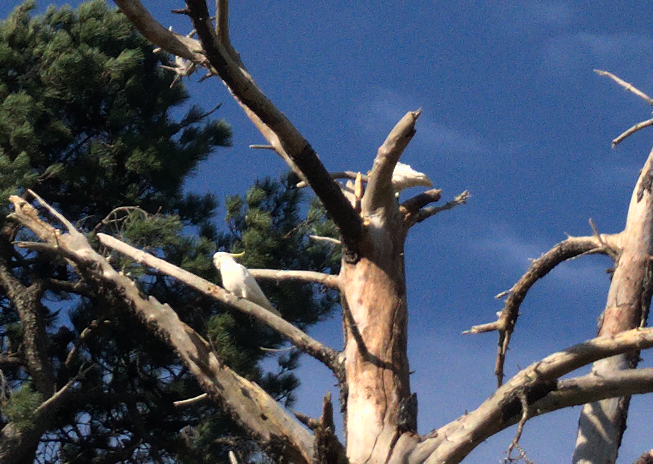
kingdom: Animalia
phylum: Chordata
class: Aves
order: Psittaciformes
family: Psittacidae
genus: Cacatua
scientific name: Cacatua galerita
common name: Sulphur-crested cockatoo
